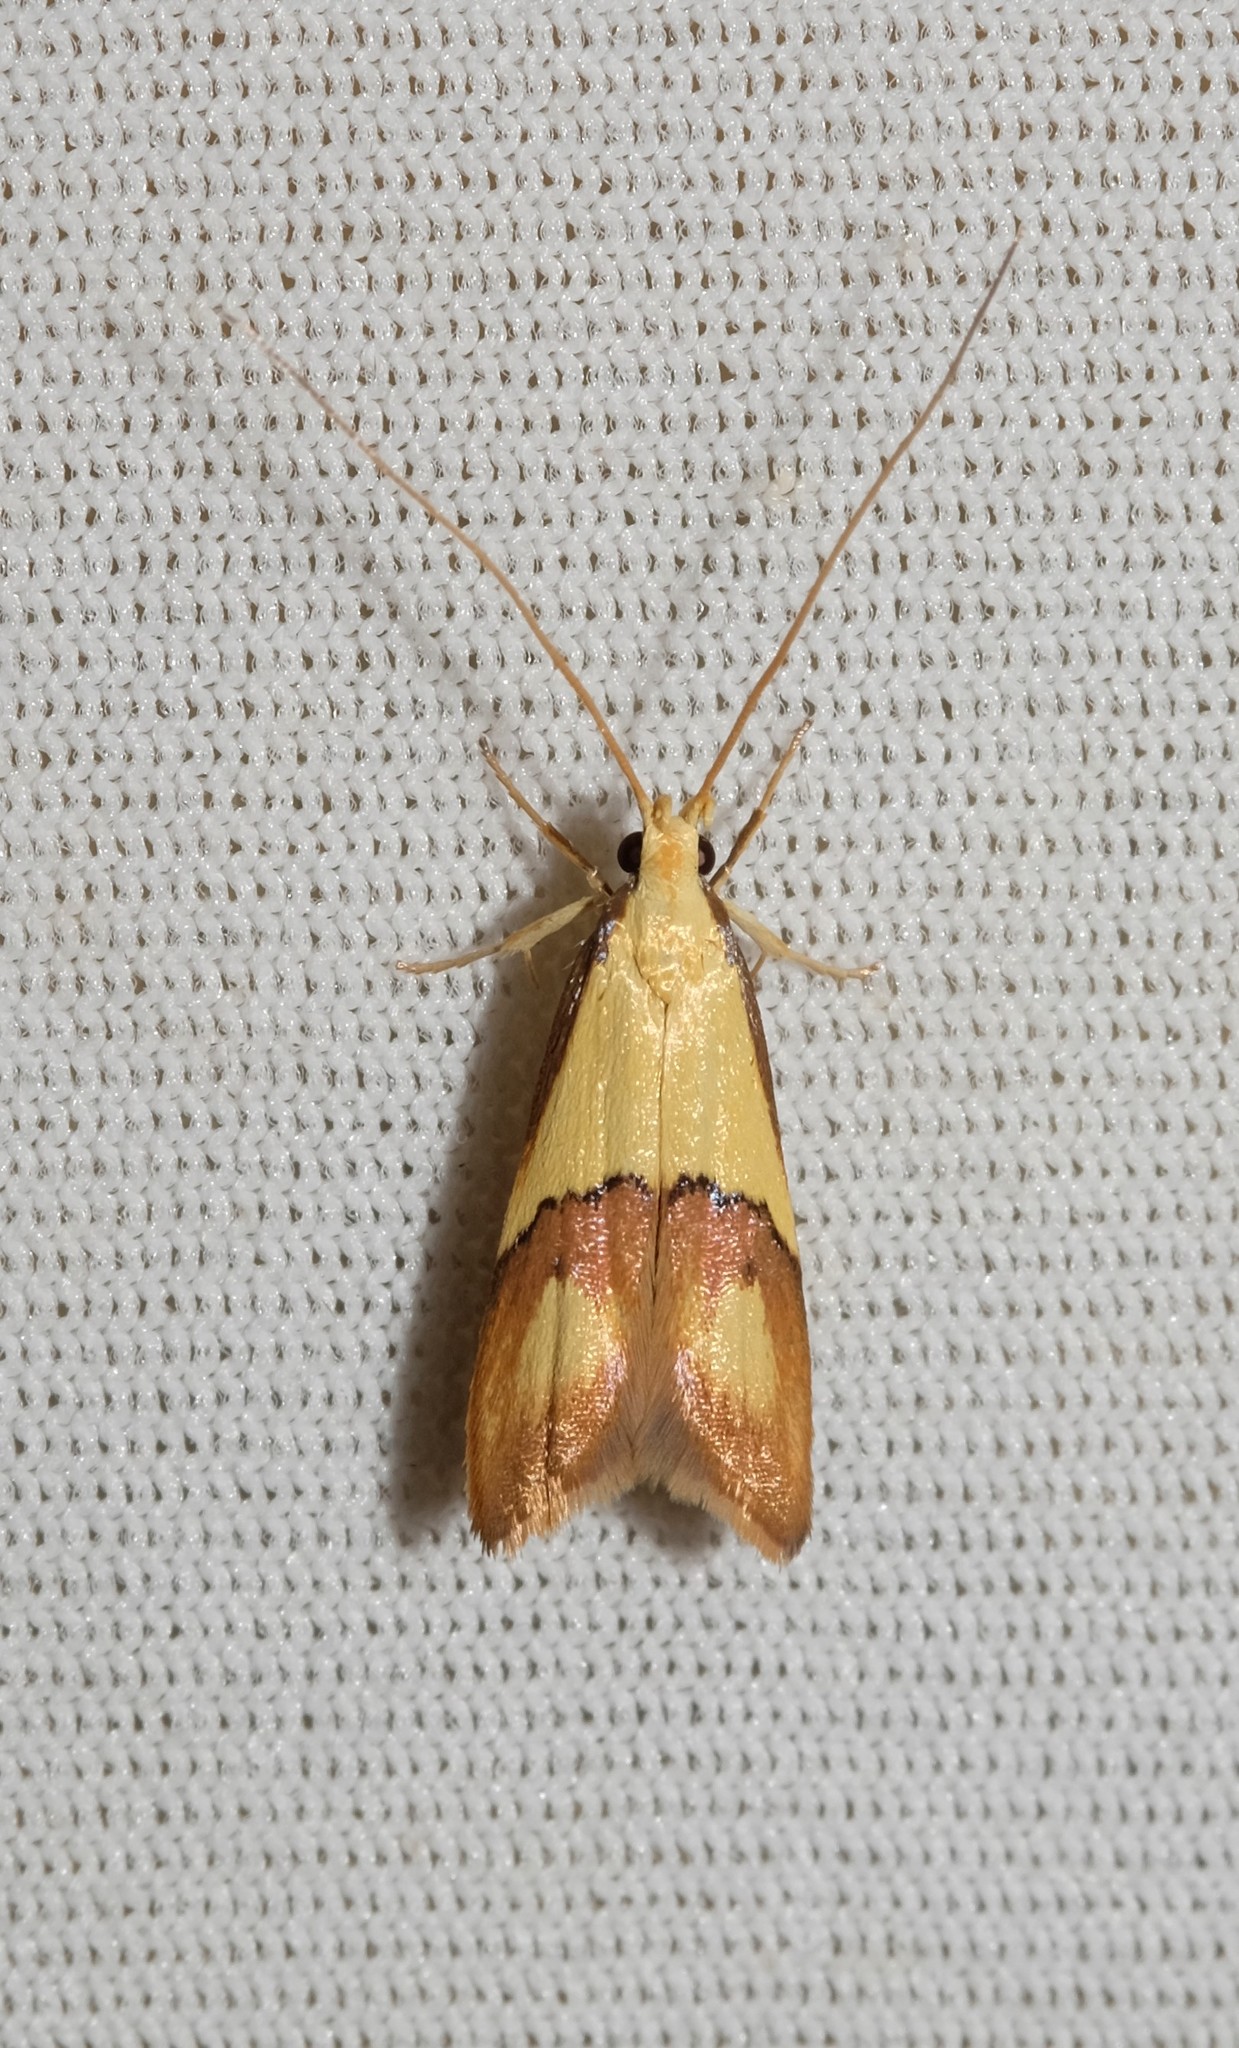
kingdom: Animalia
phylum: Arthropoda
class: Insecta
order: Lepidoptera
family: Lecithoceridae
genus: Crocanthes
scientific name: Crocanthes glycina
